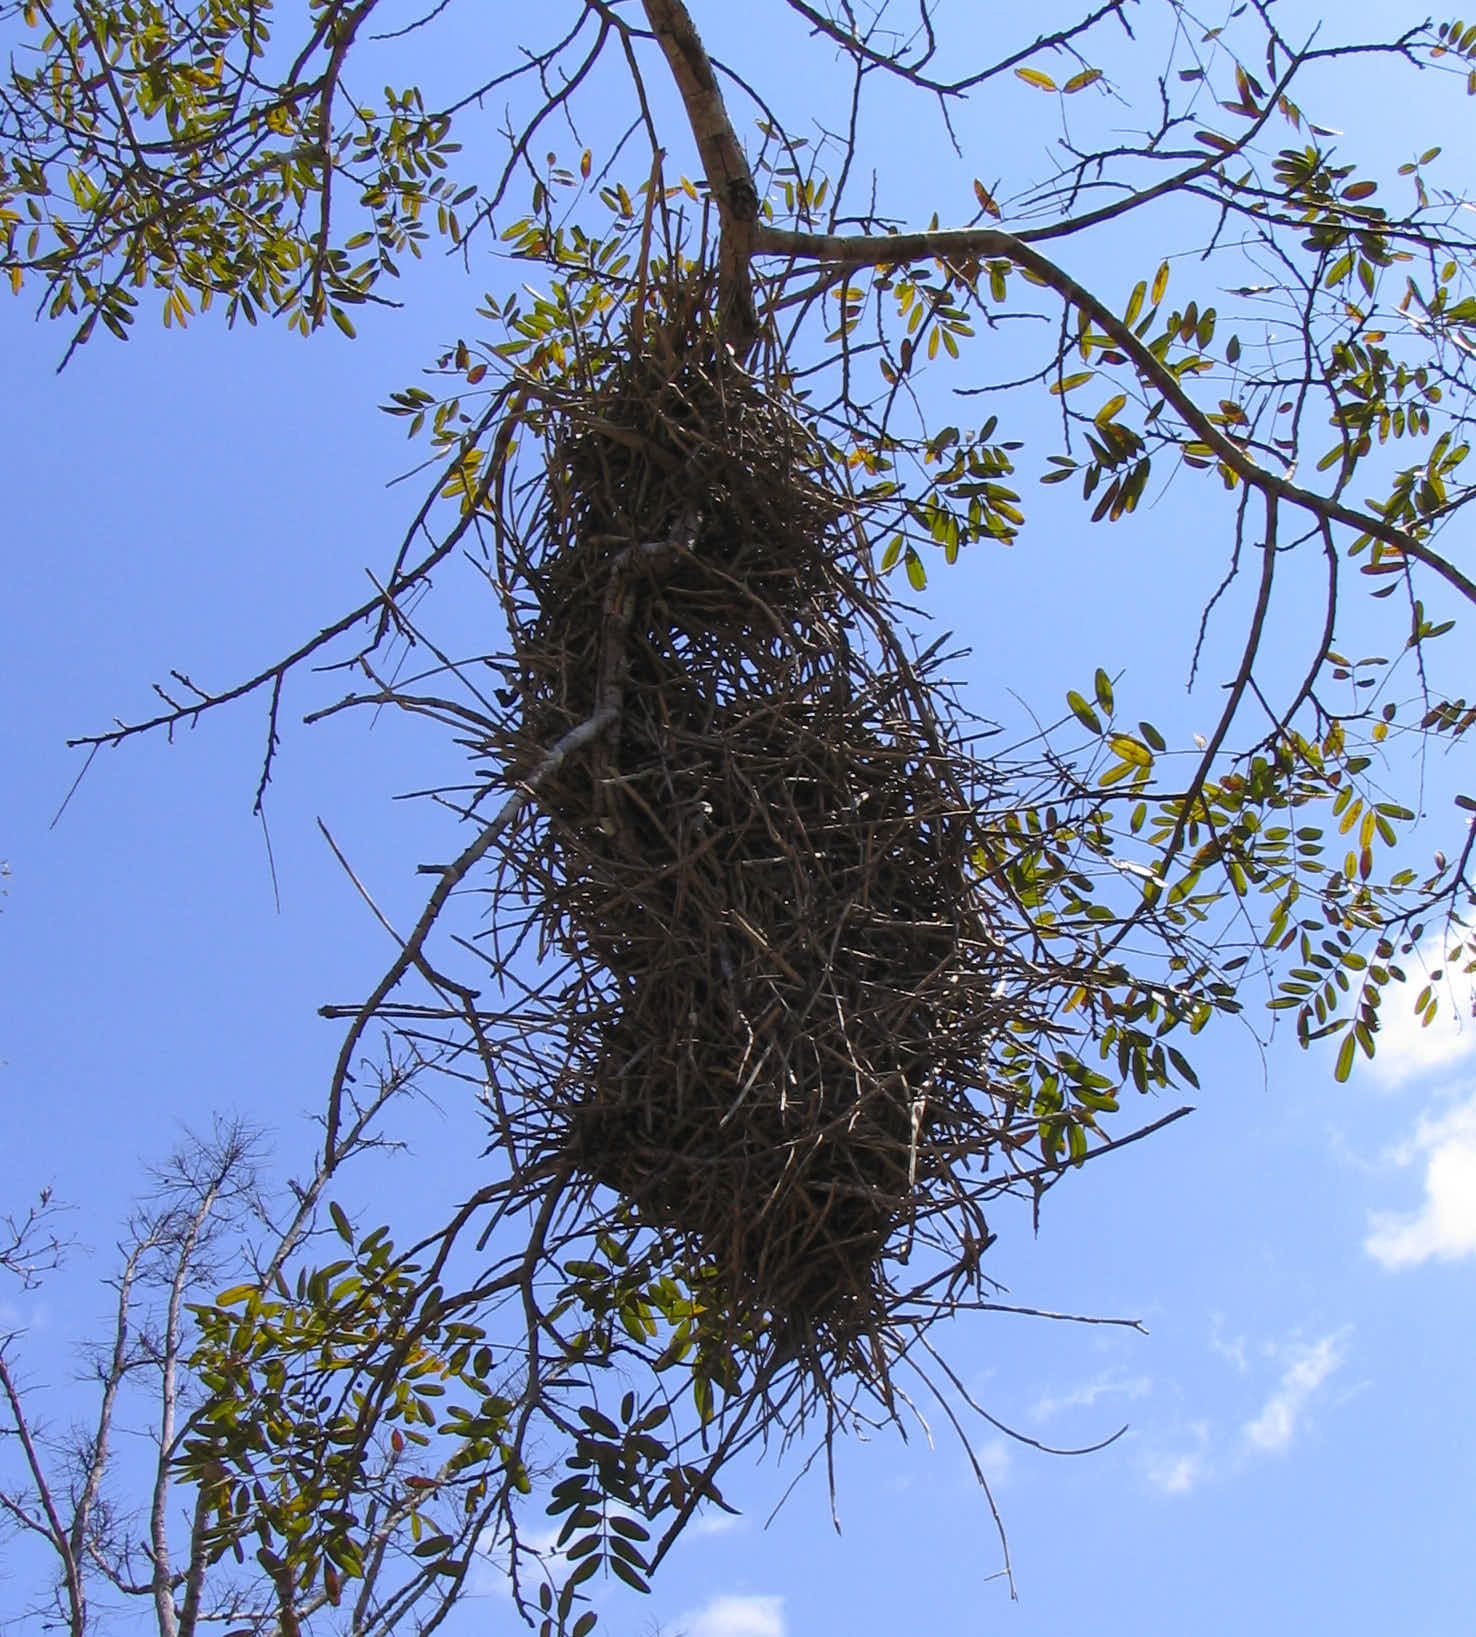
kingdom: Animalia
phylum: Chordata
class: Aves
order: Passeriformes
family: Furnariidae
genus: Phacellodomus
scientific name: Phacellodomus rufifrons
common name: Rufous-fronted thornbird
